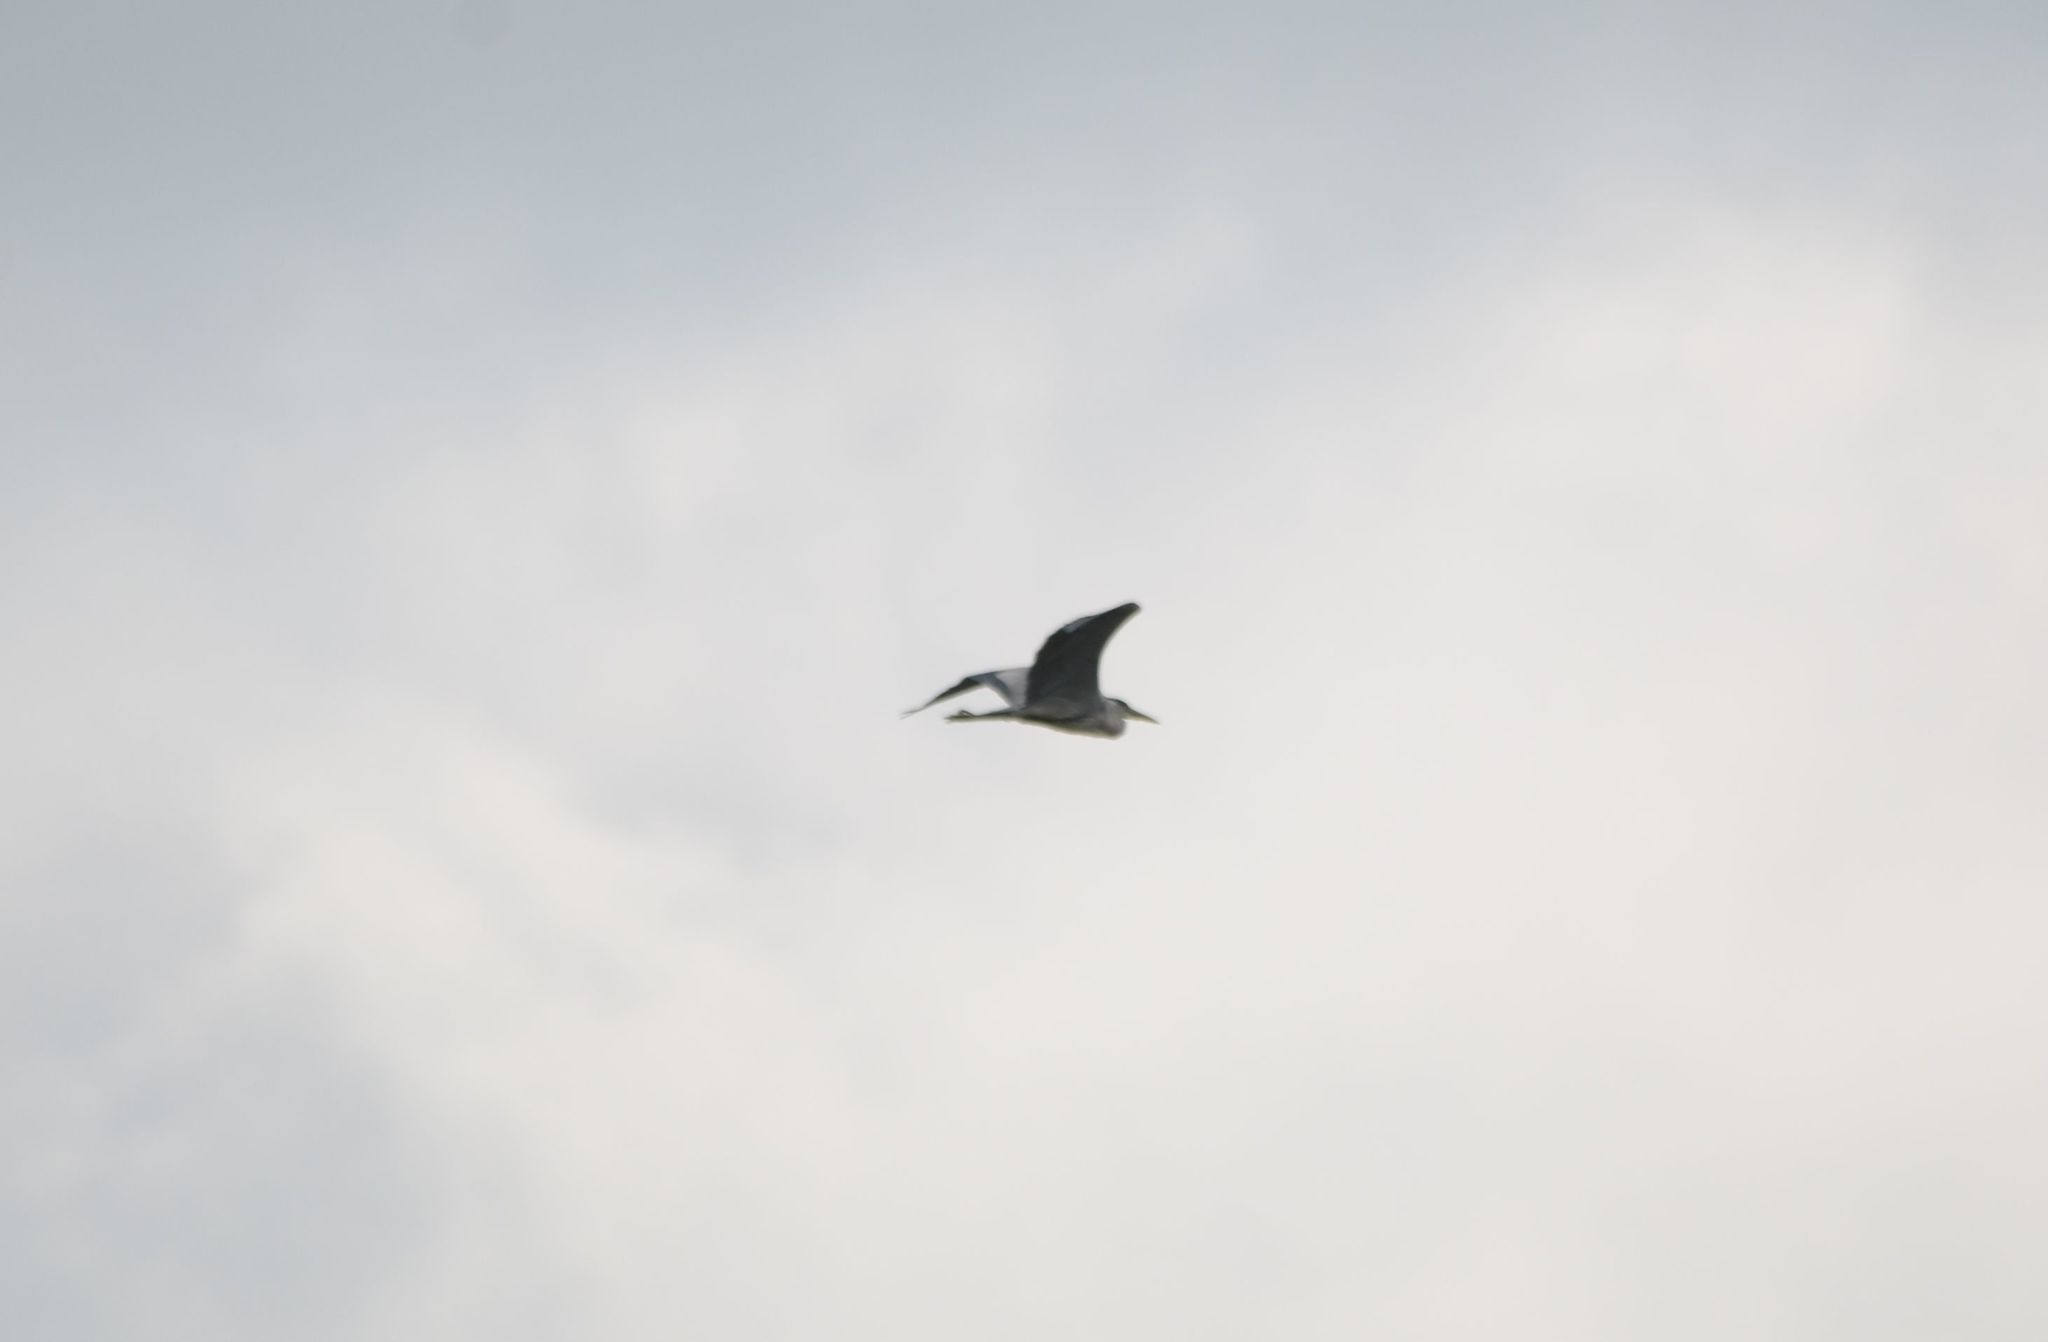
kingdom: Animalia
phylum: Chordata
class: Aves
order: Pelecaniformes
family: Ardeidae
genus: Ardea
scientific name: Ardea cinerea
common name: Grey heron
